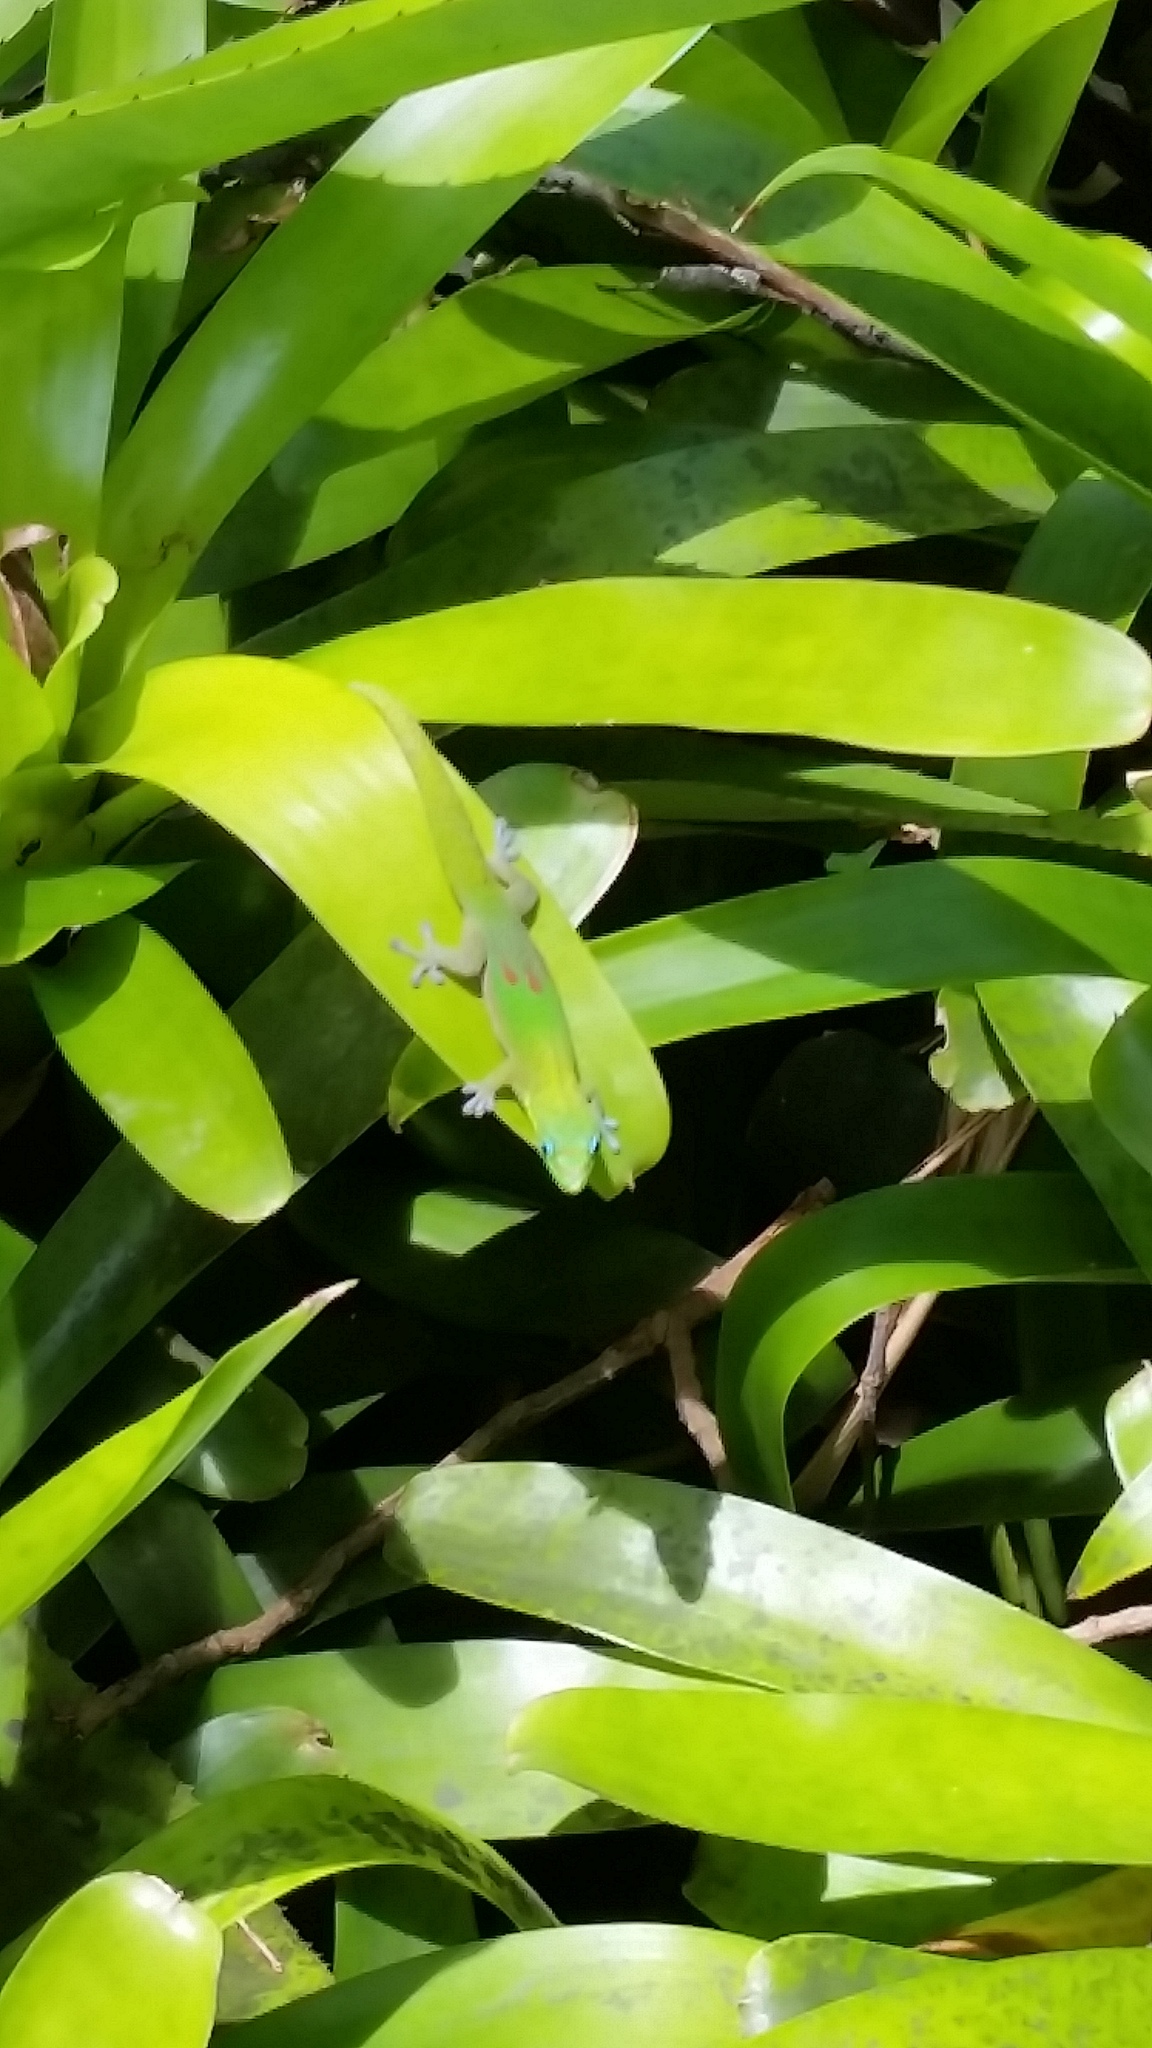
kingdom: Animalia
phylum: Chordata
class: Squamata
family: Gekkonidae
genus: Phelsuma
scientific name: Phelsuma laticauda
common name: Gold dust day gecko
